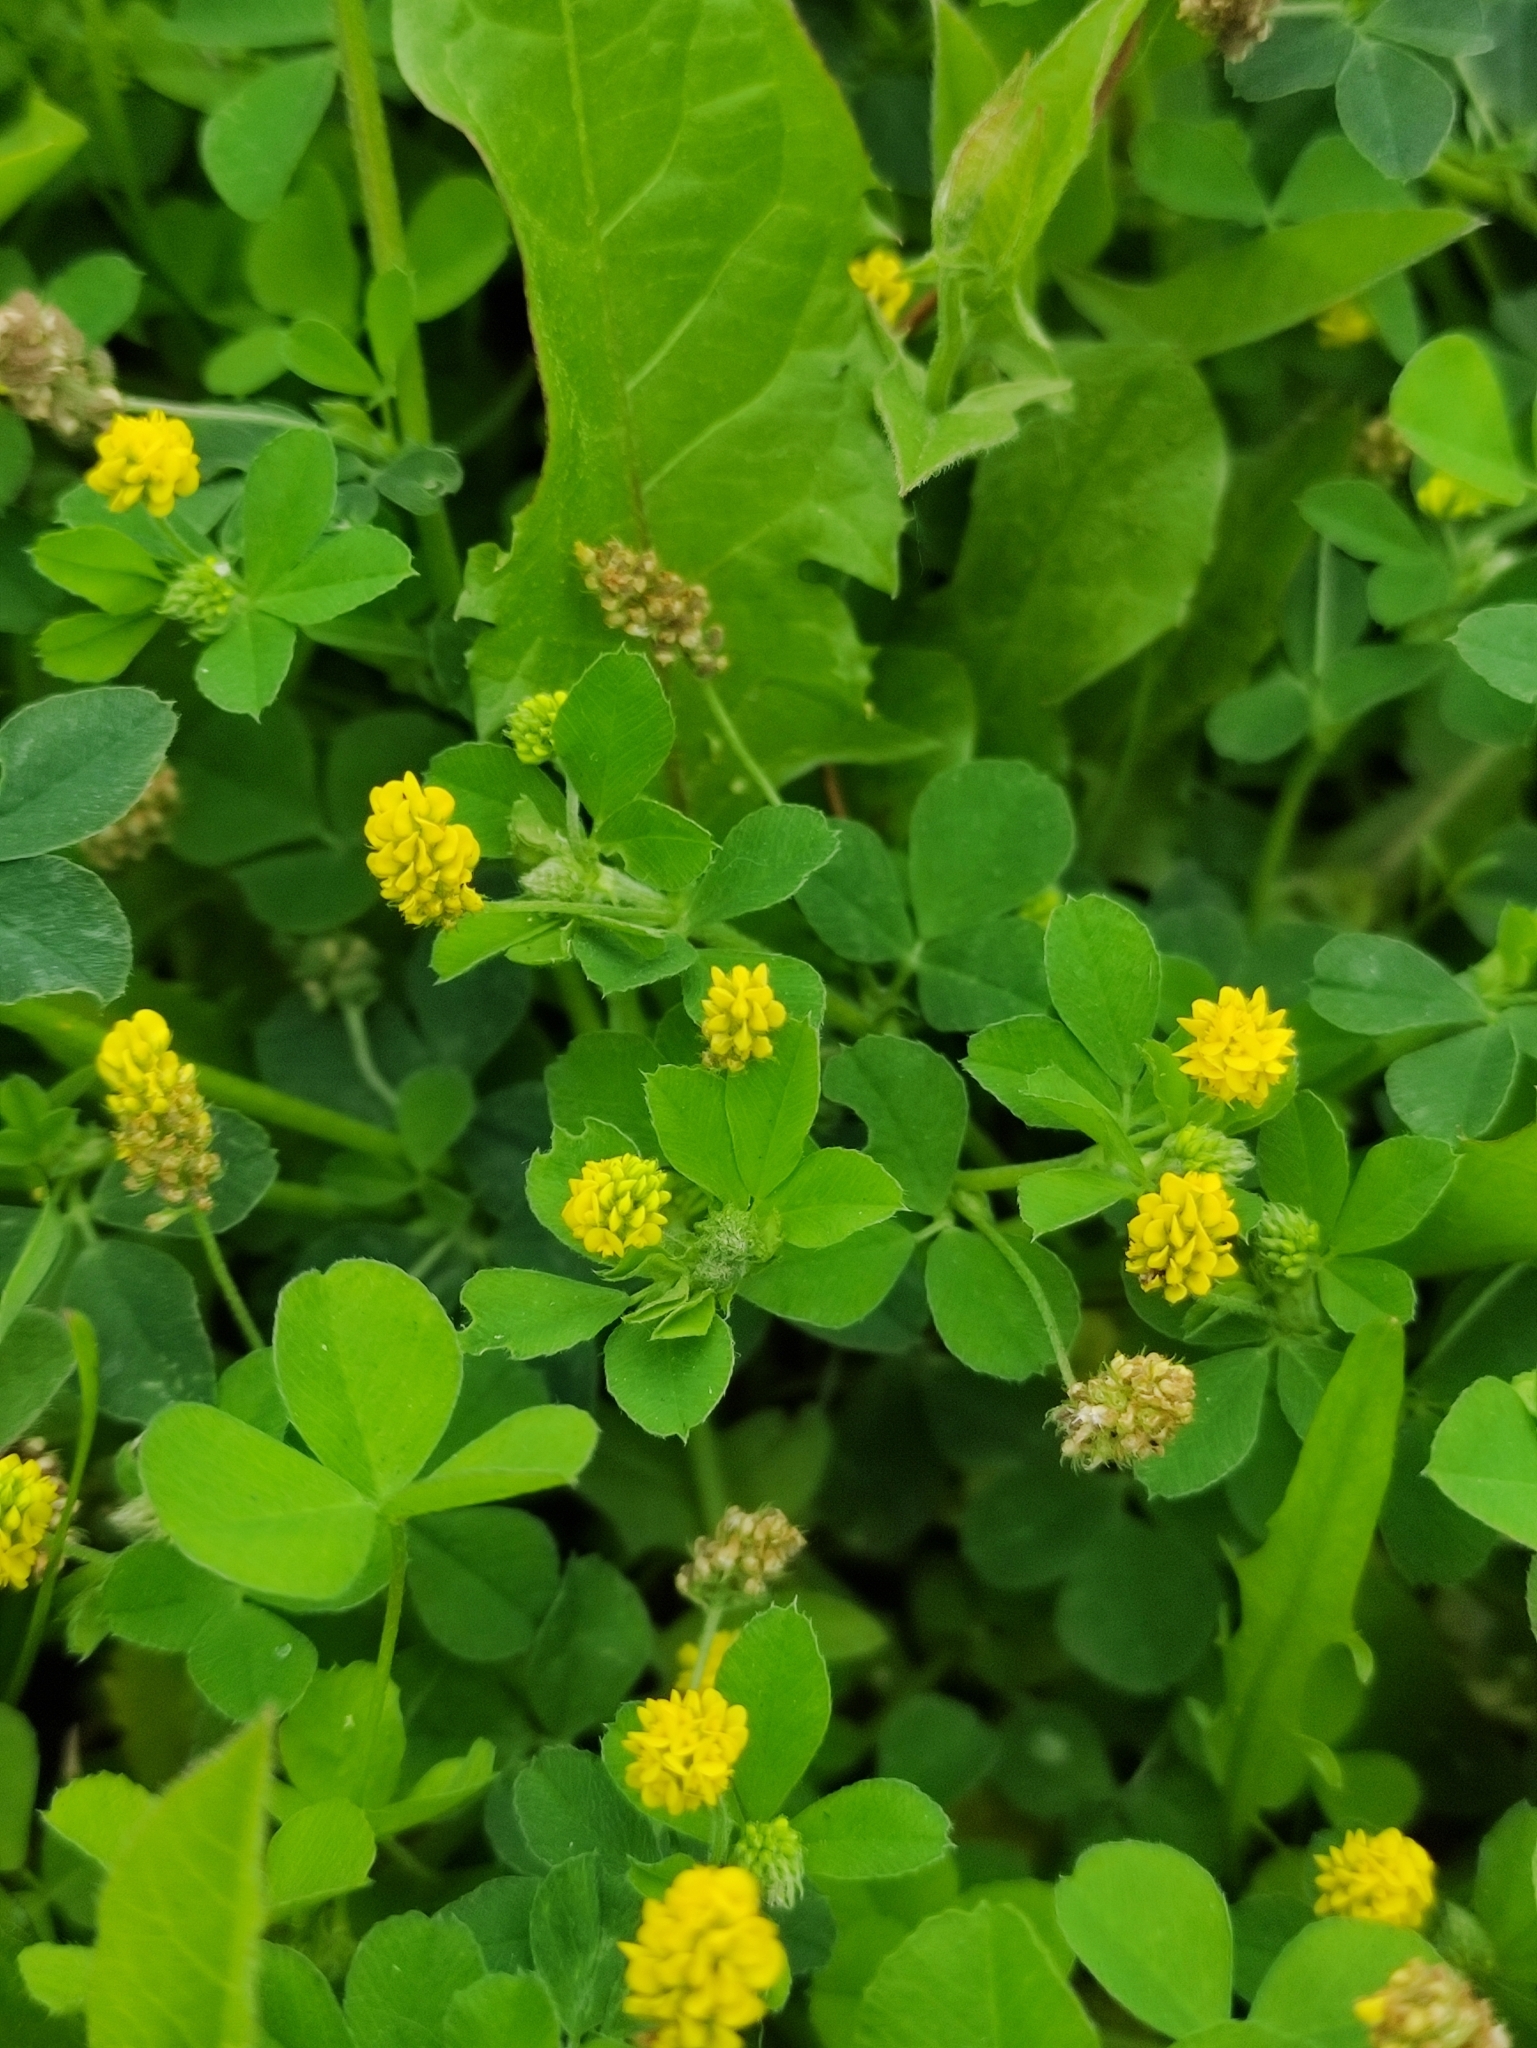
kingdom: Plantae
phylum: Tracheophyta
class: Magnoliopsida
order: Fabales
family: Fabaceae
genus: Medicago
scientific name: Medicago lupulina
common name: Black medick
